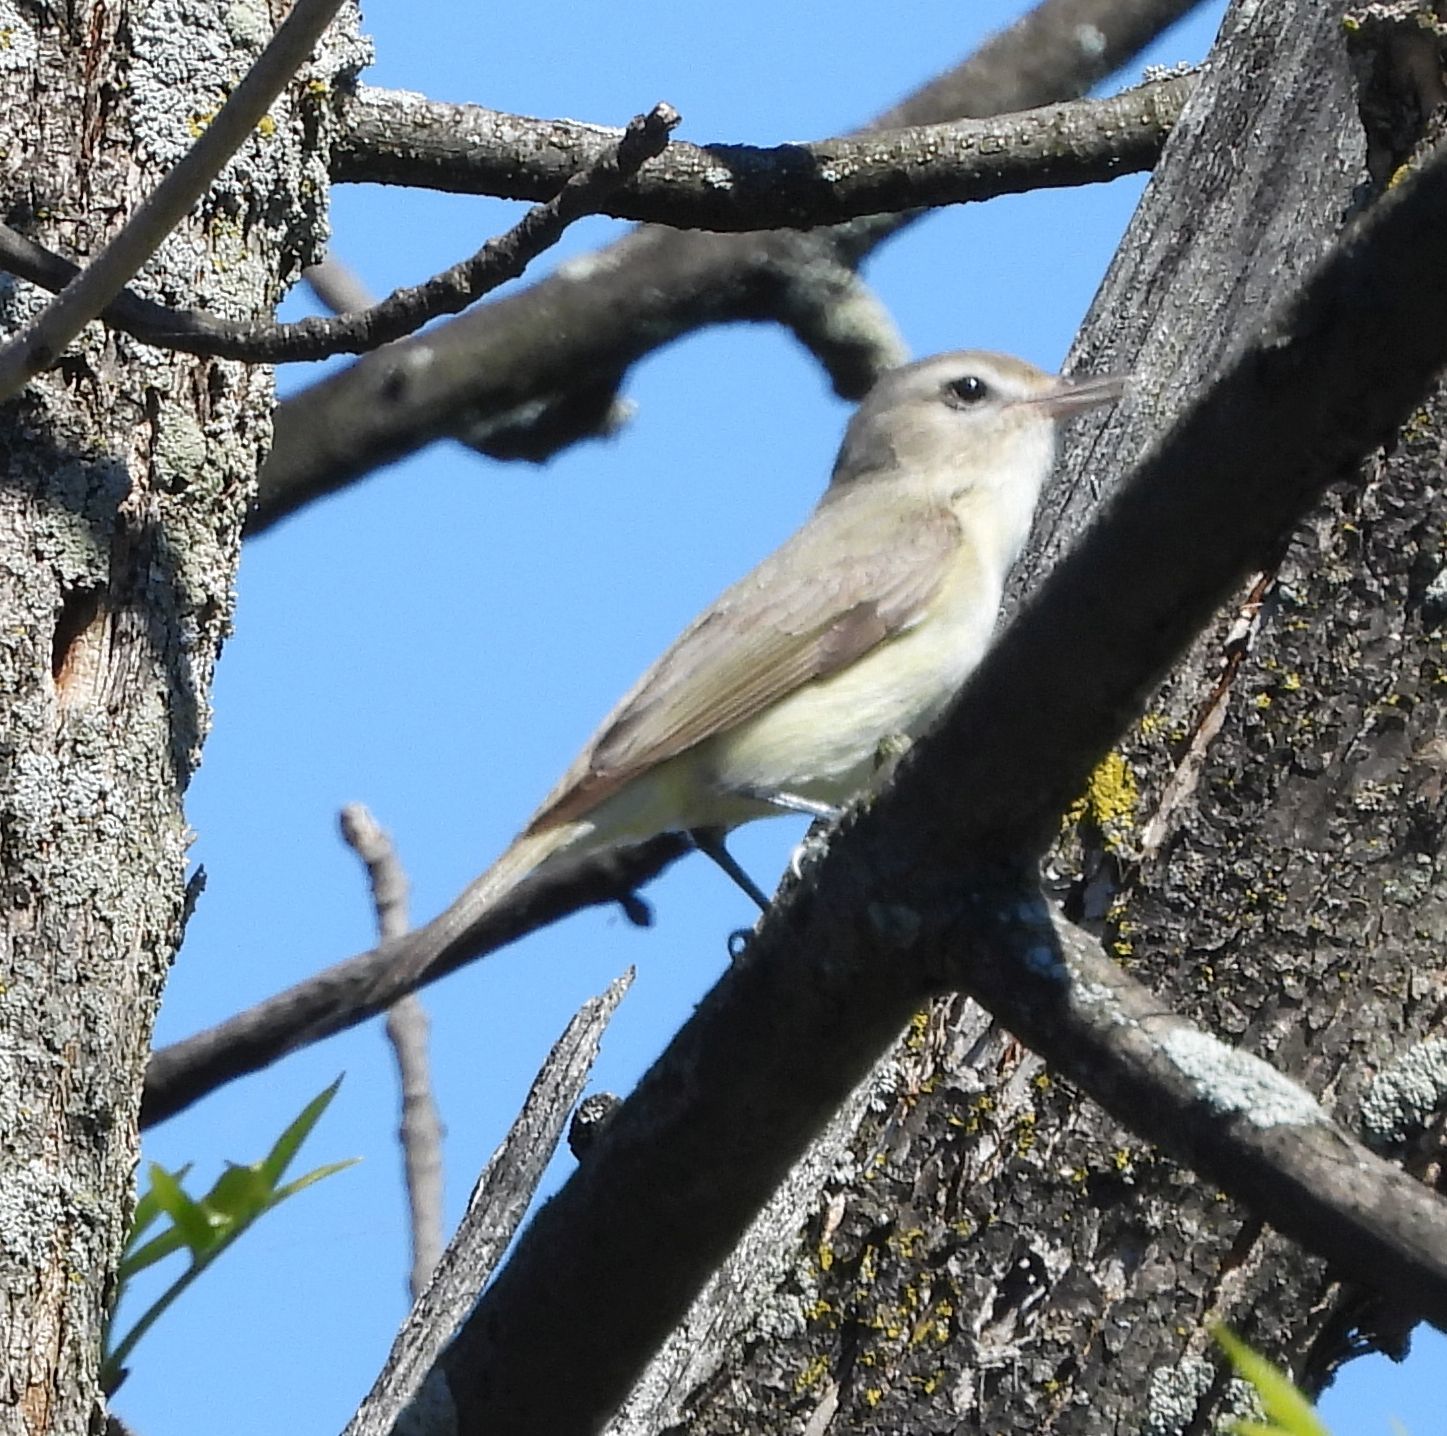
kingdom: Animalia
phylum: Chordata
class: Aves
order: Passeriformes
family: Vireonidae
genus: Vireo
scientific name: Vireo gilvus
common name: Warbling vireo
